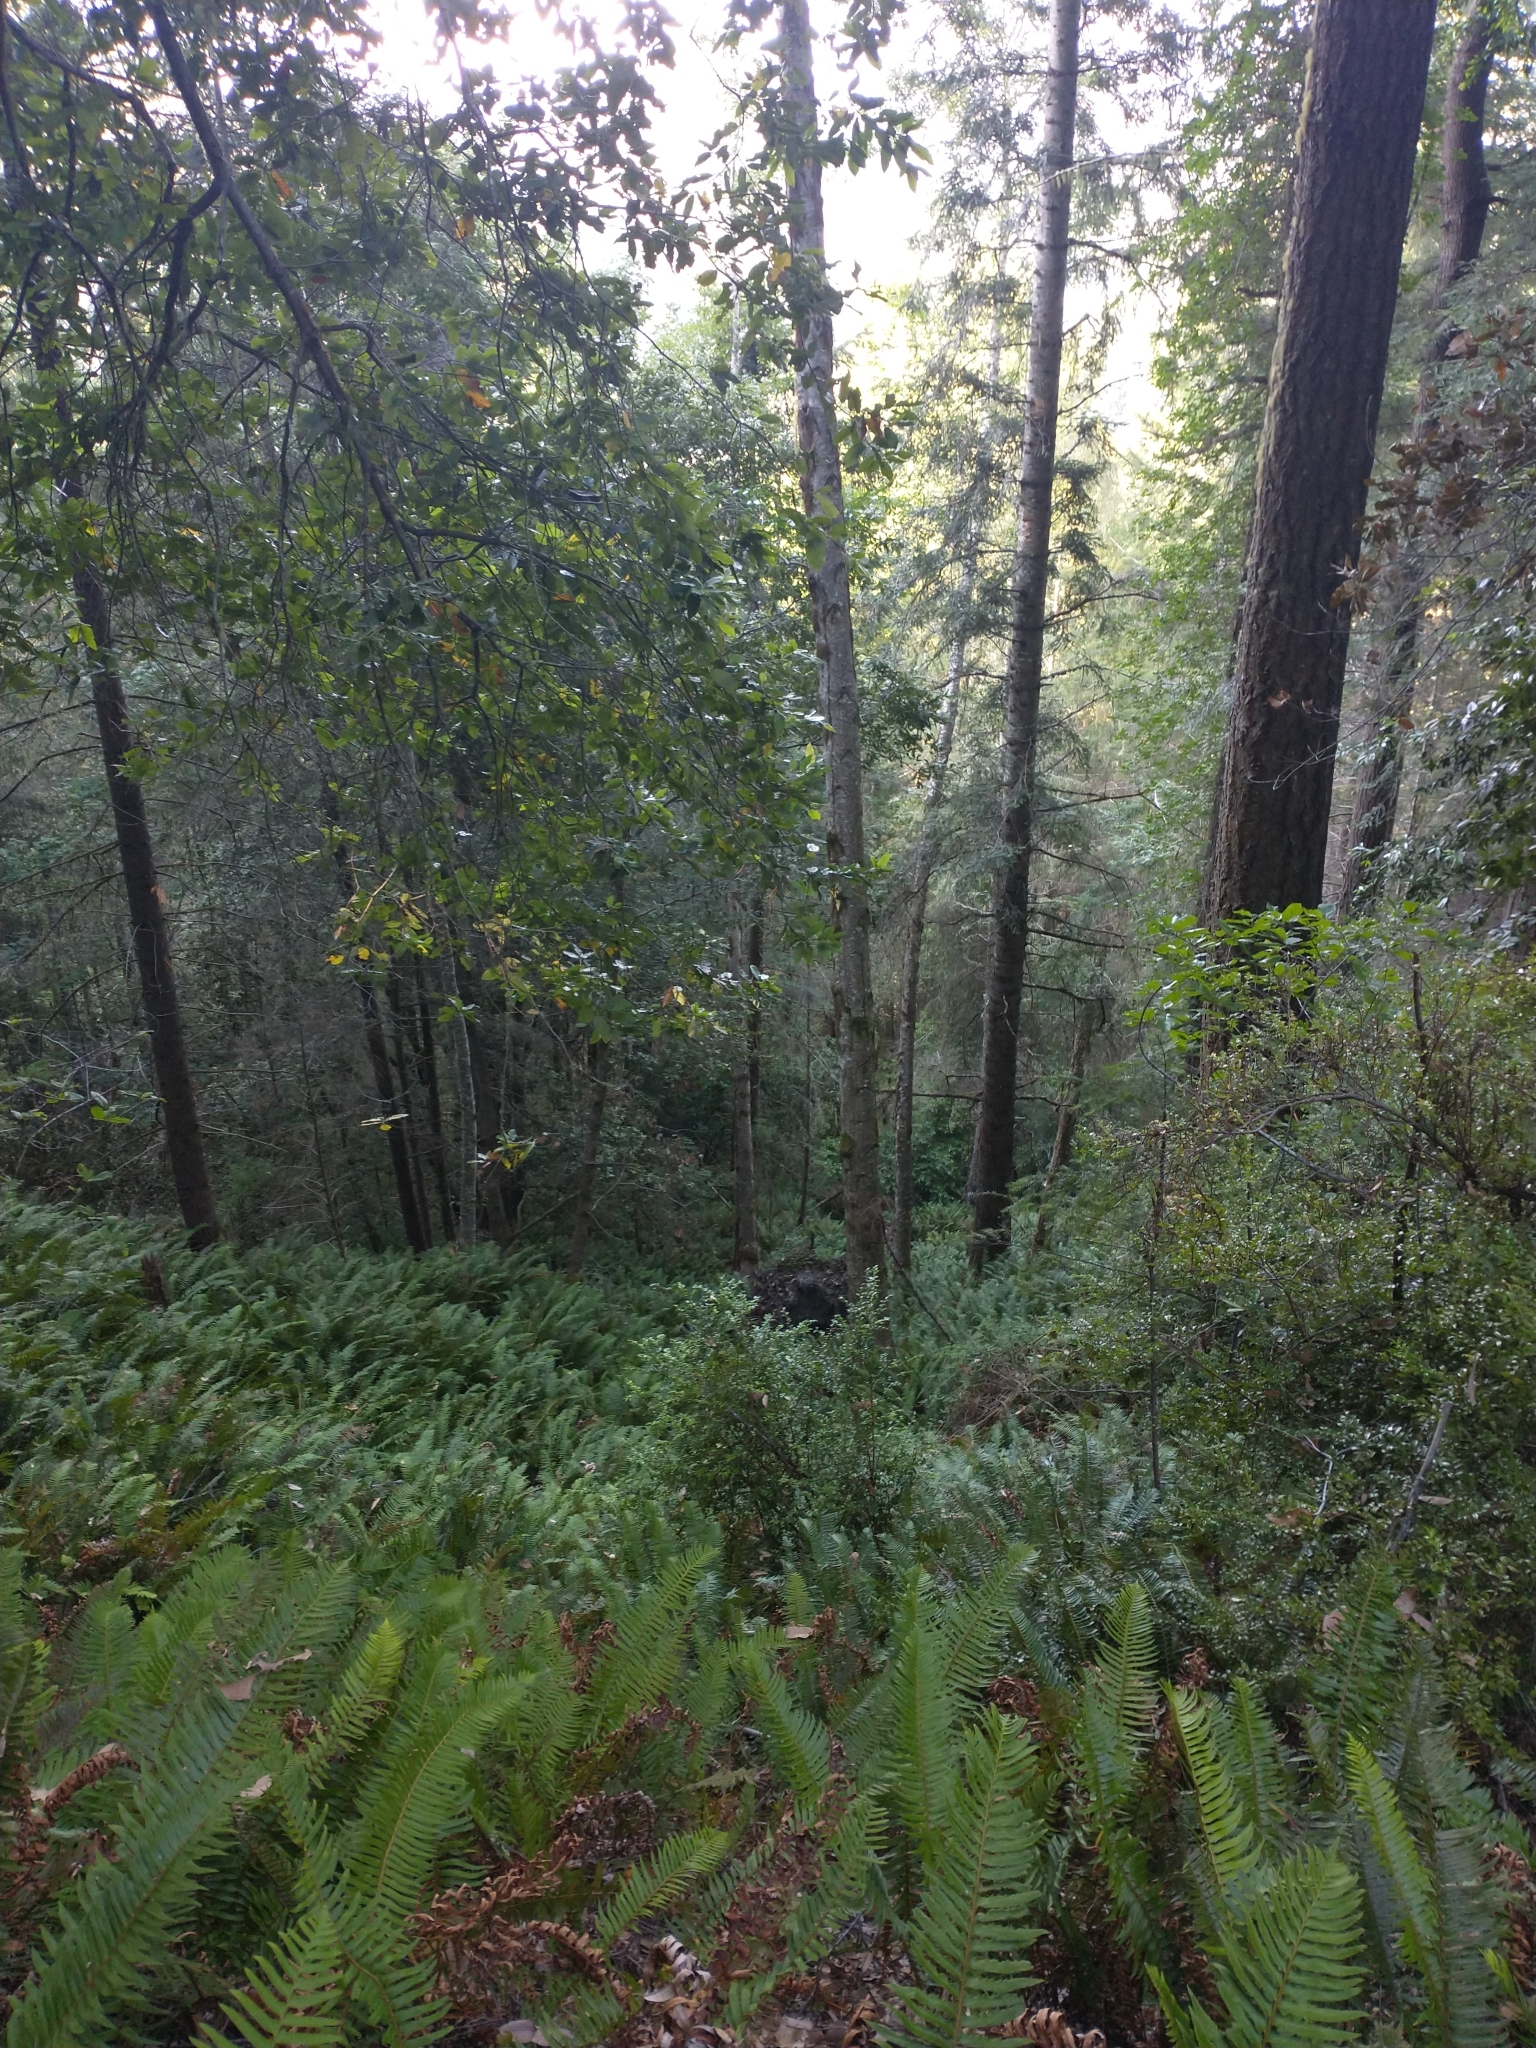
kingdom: Plantae
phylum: Tracheophyta
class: Polypodiopsida
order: Polypodiales
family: Dryopteridaceae
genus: Polystichum
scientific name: Polystichum munitum
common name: Western sword-fern
